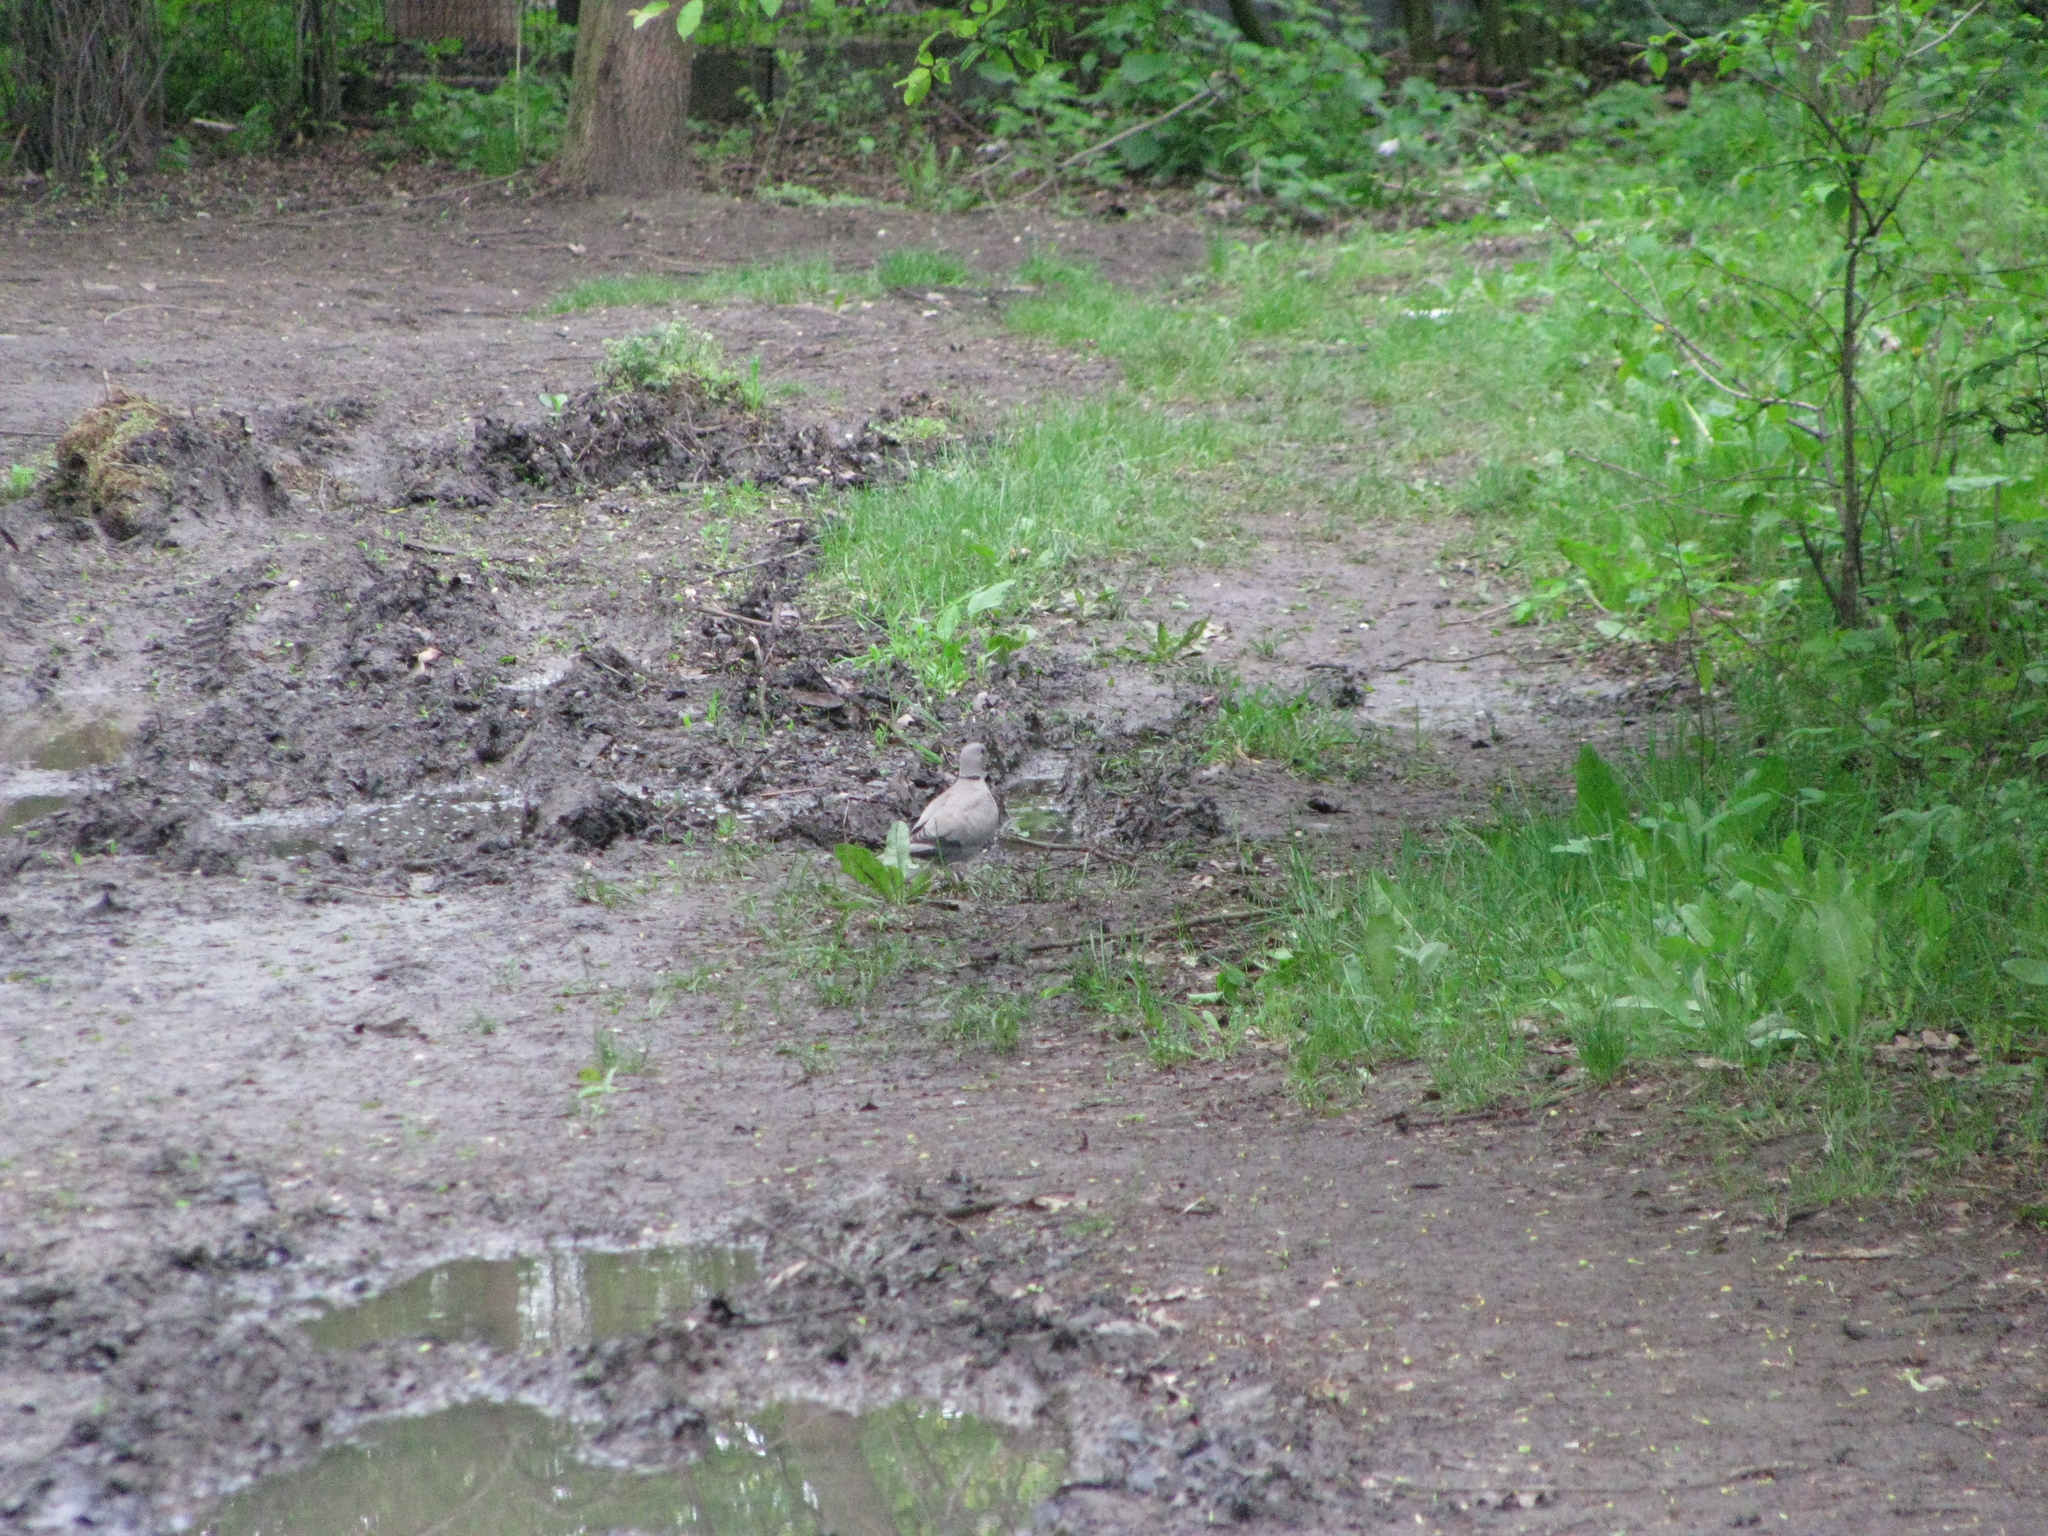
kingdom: Animalia
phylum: Chordata
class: Aves
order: Columbiformes
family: Columbidae
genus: Streptopelia
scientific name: Streptopelia decaocto
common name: Eurasian collared dove
